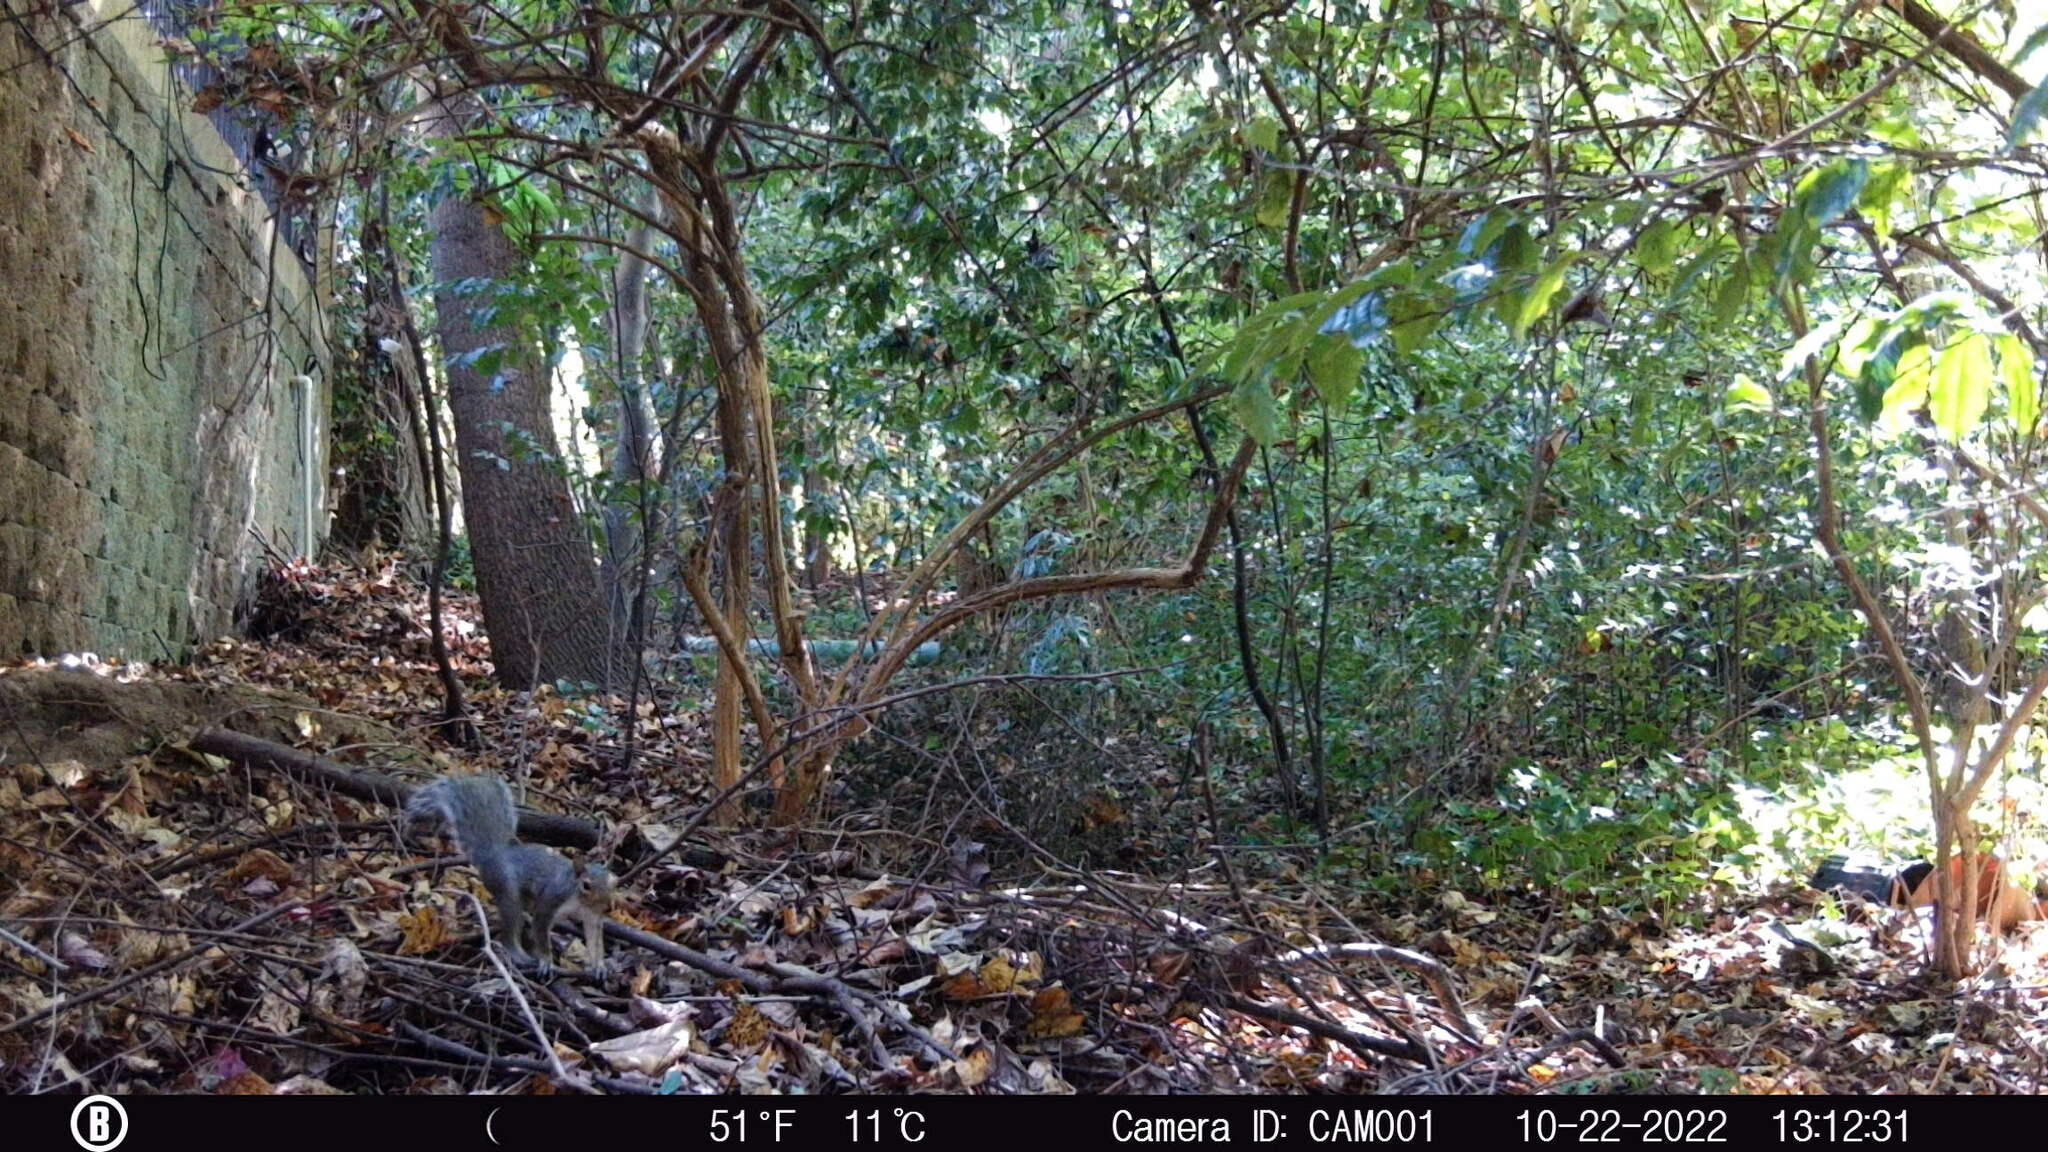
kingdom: Animalia
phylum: Chordata
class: Mammalia
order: Rodentia
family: Sciuridae
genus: Sciurus
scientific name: Sciurus carolinensis
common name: Eastern gray squirrel
